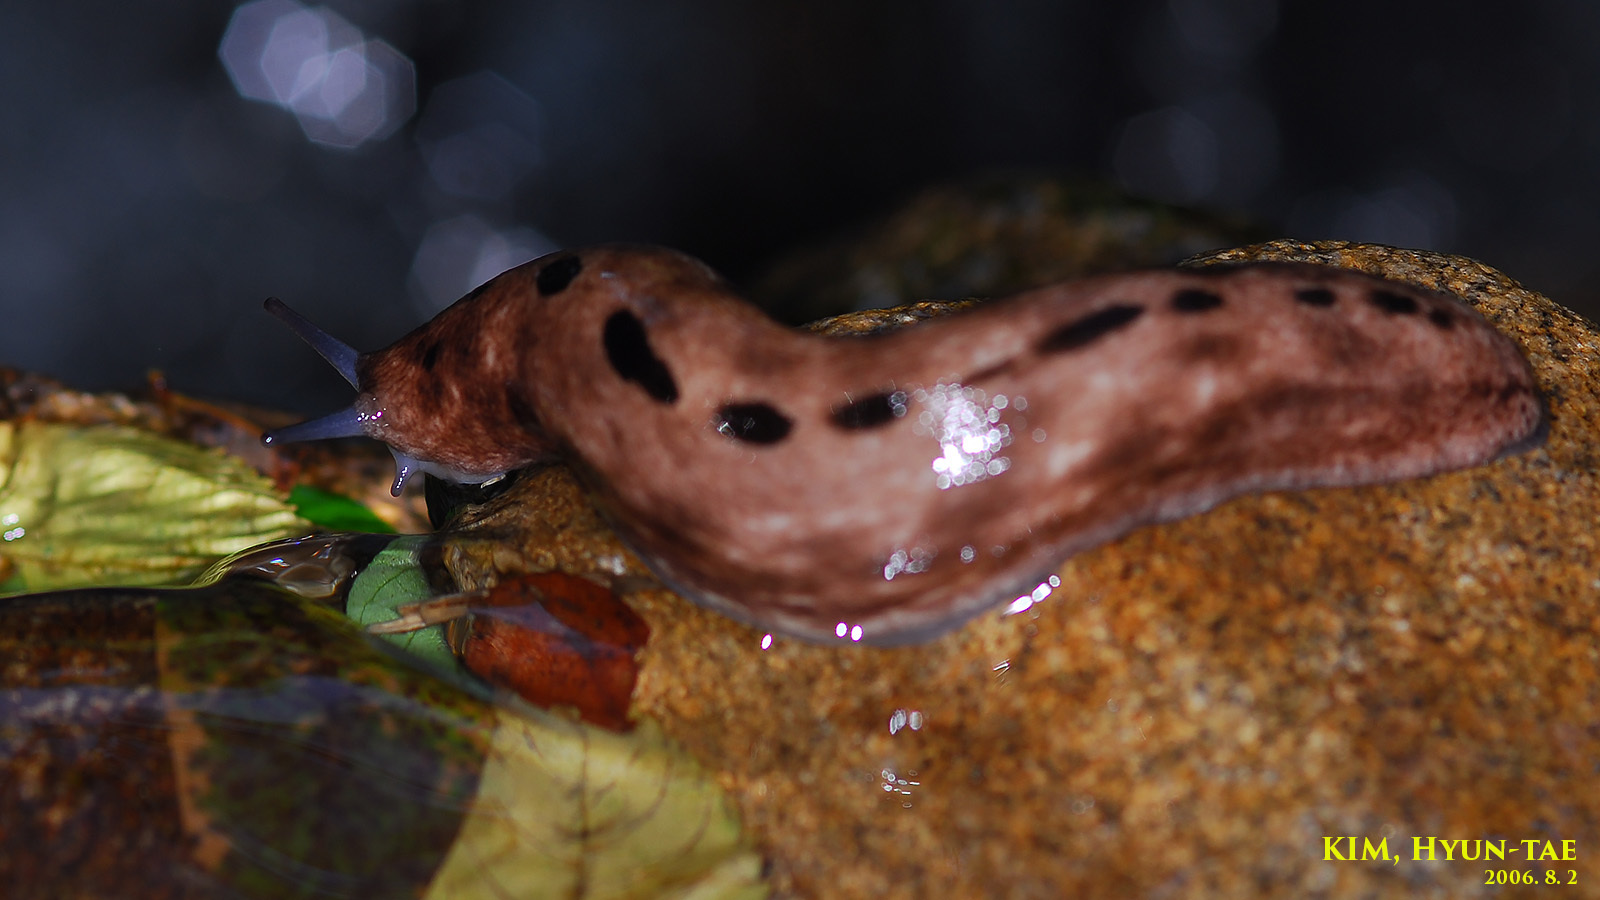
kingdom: Animalia
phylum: Mollusca
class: Gastropoda
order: Stylommatophora
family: Philomycidae
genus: Meghimatium
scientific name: Meghimatium fruhstorferi
